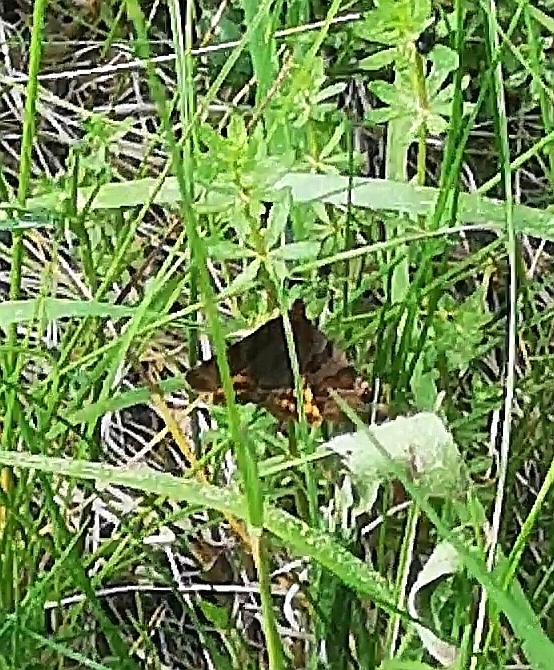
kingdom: Animalia
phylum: Arthropoda
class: Insecta
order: Lepidoptera
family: Erebidae
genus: Euclidia
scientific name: Euclidia glyphica
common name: Burnet companion
